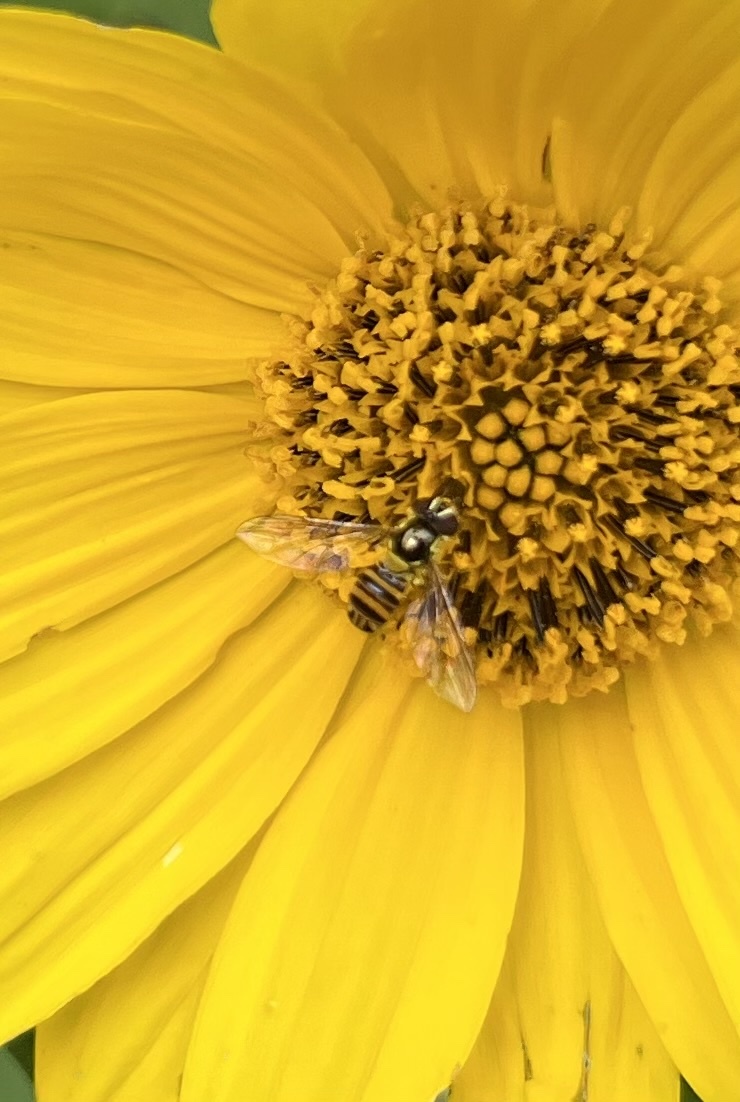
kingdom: Animalia
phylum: Arthropoda
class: Insecta
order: Diptera
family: Syrphidae
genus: Allograpta
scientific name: Allograpta obliqua
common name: Common oblique syrphid
